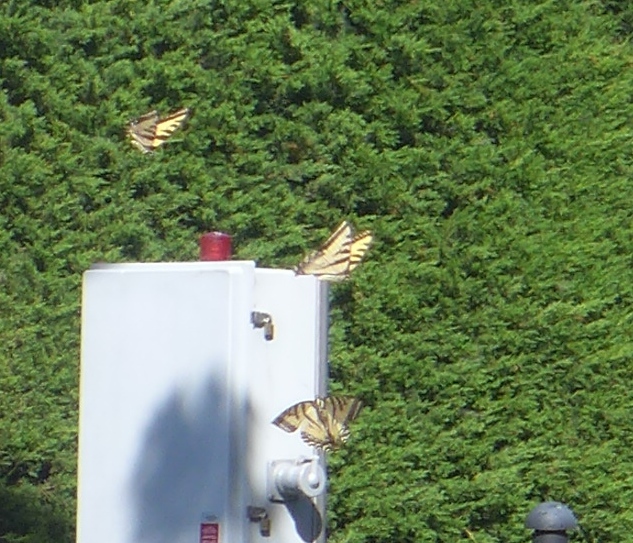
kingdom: Animalia
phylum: Arthropoda
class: Insecta
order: Lepidoptera
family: Papilionidae
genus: Papilio
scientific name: Papilio rutulus
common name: Western tiger swallowtail
